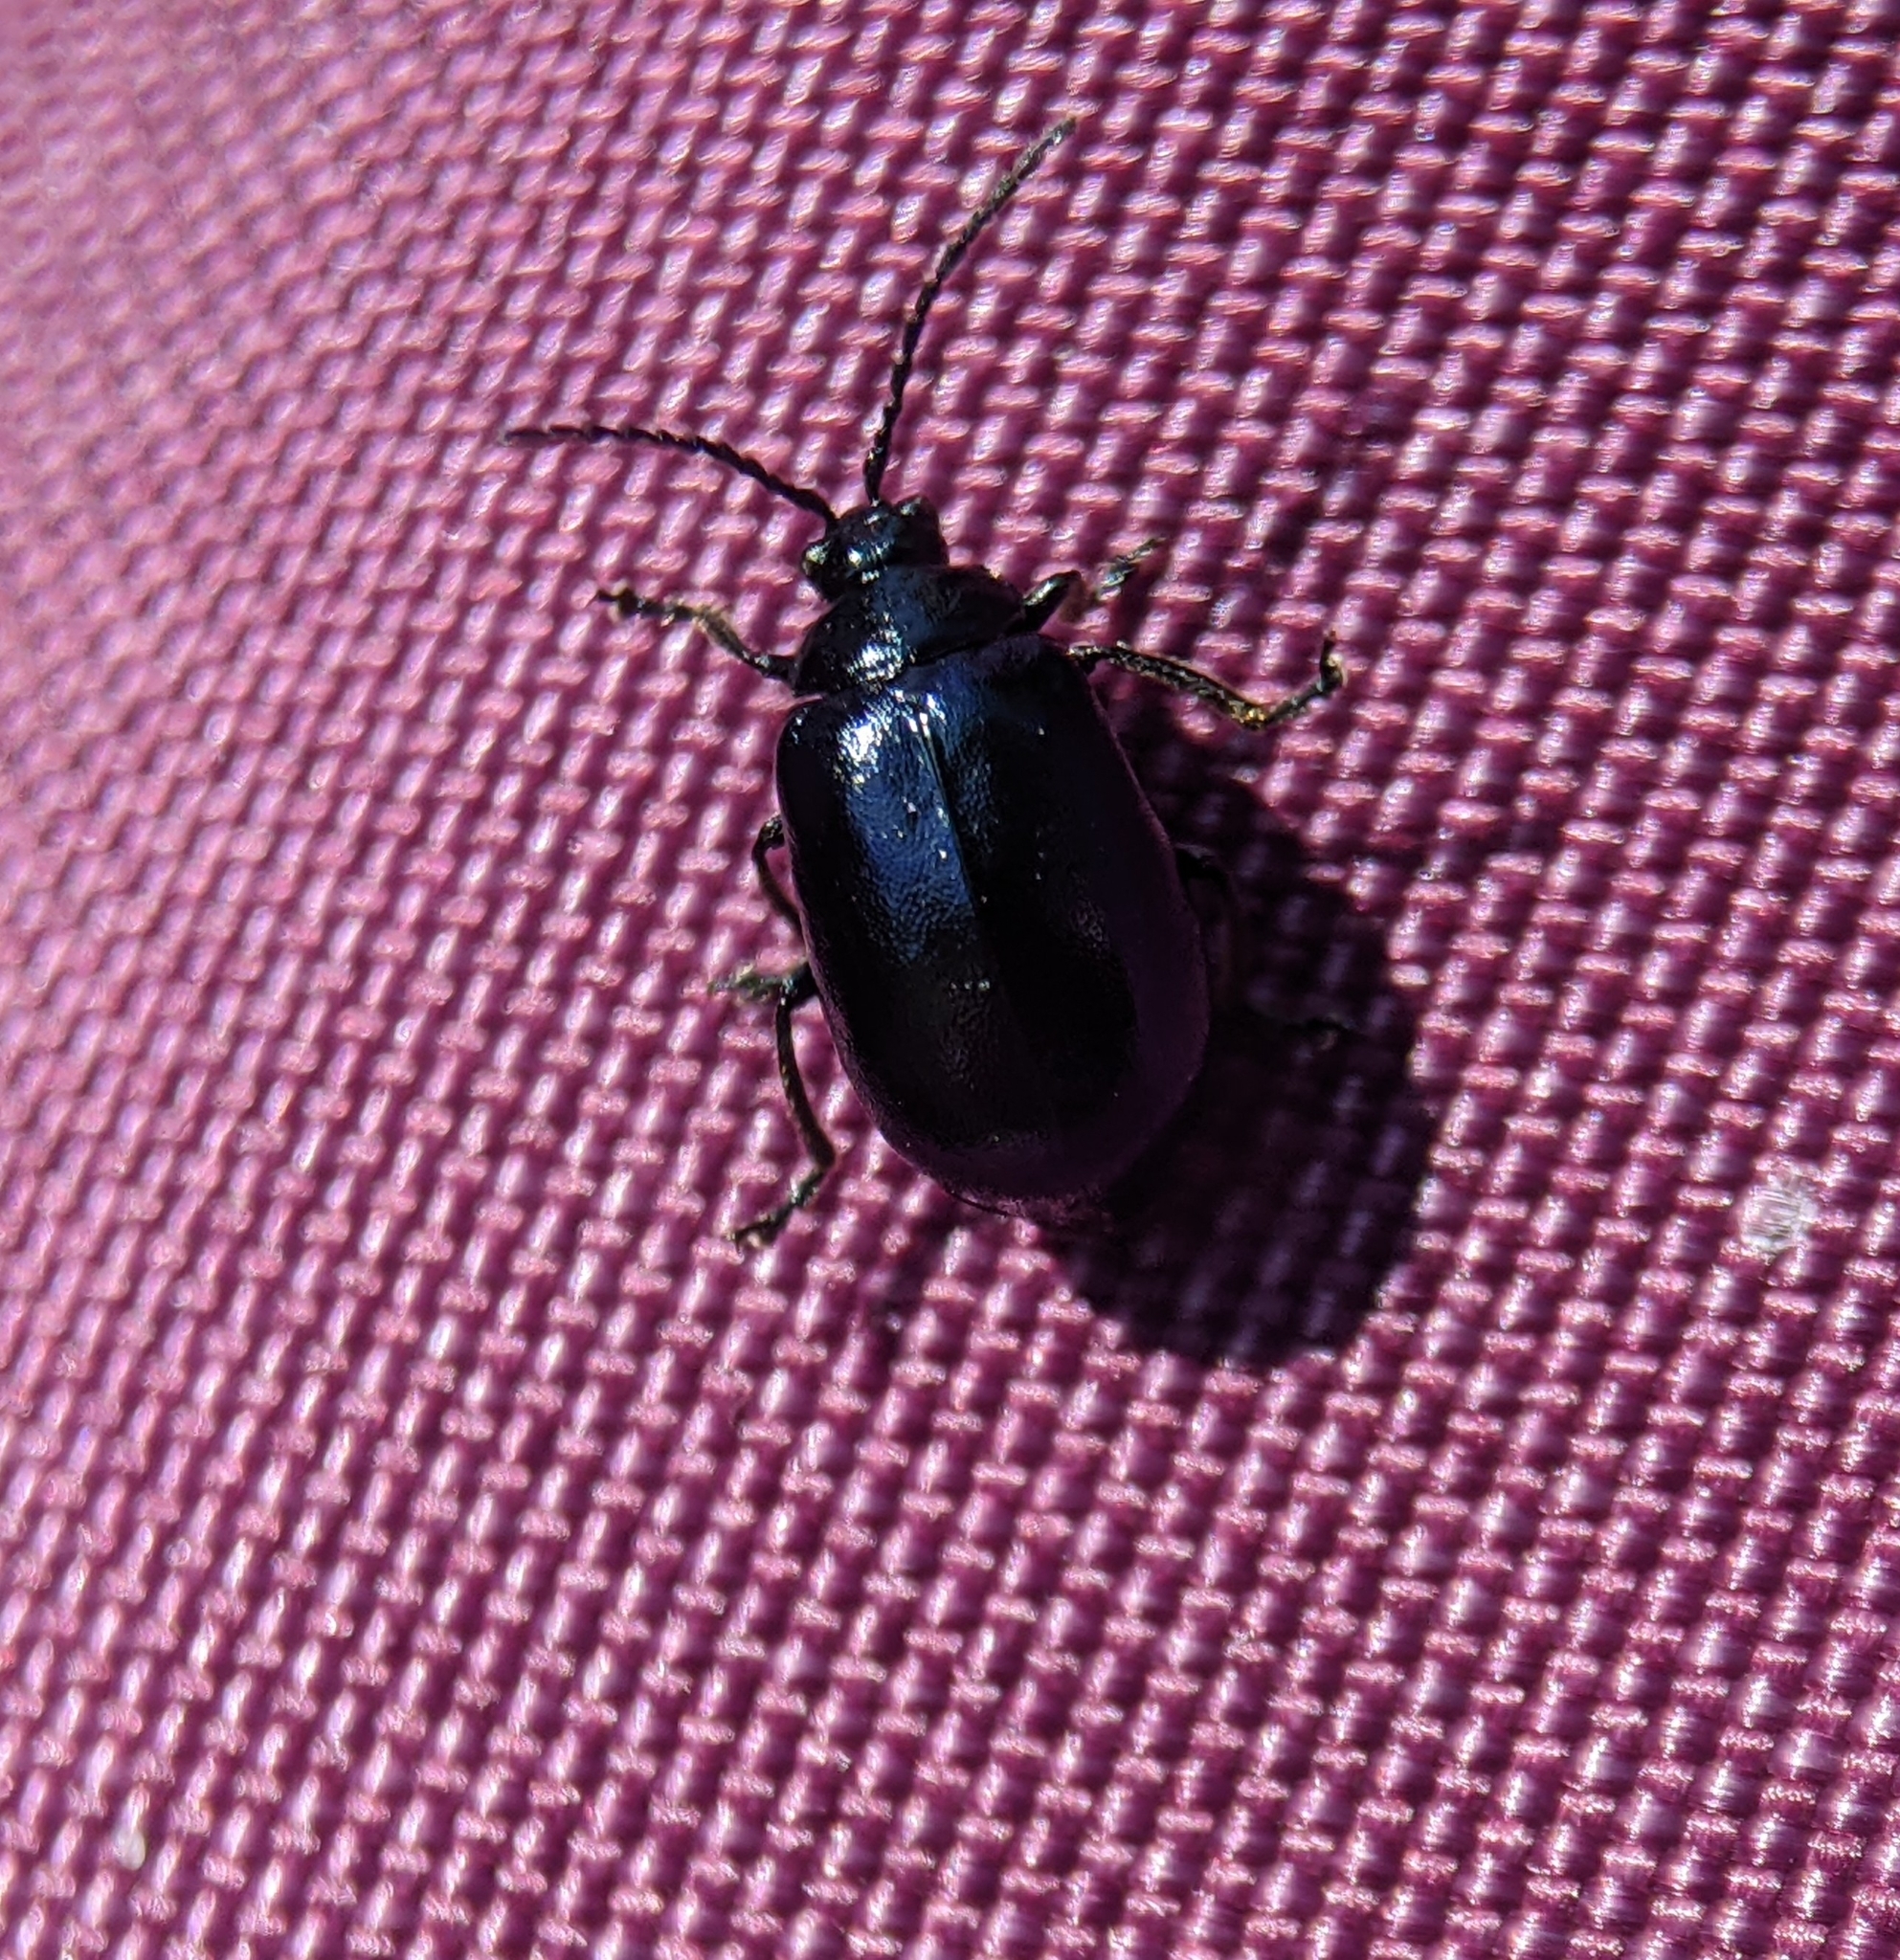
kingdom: Animalia
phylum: Arthropoda
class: Insecta
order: Coleoptera
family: Chrysomelidae
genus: Agelastica
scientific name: Agelastica alni
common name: Alder leaf beetle
